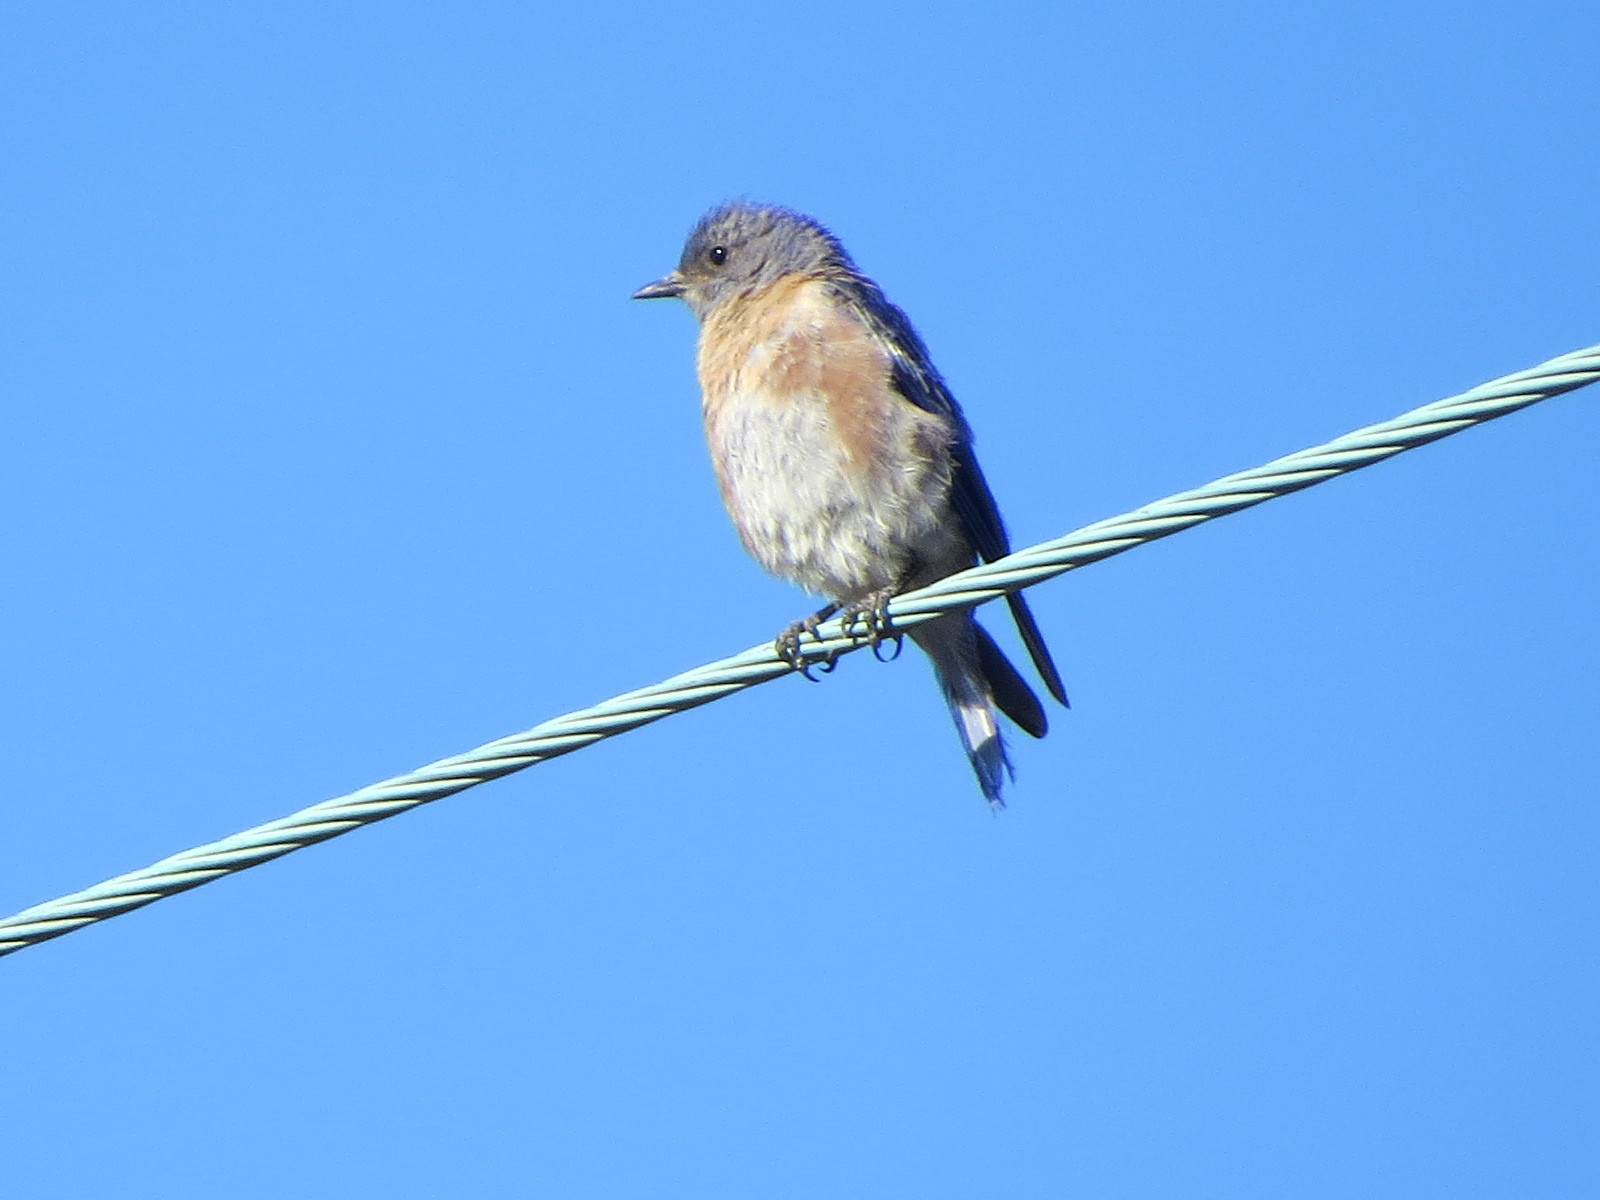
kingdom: Animalia
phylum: Chordata
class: Aves
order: Passeriformes
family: Turdidae
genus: Sialia
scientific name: Sialia mexicana
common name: Western bluebird
